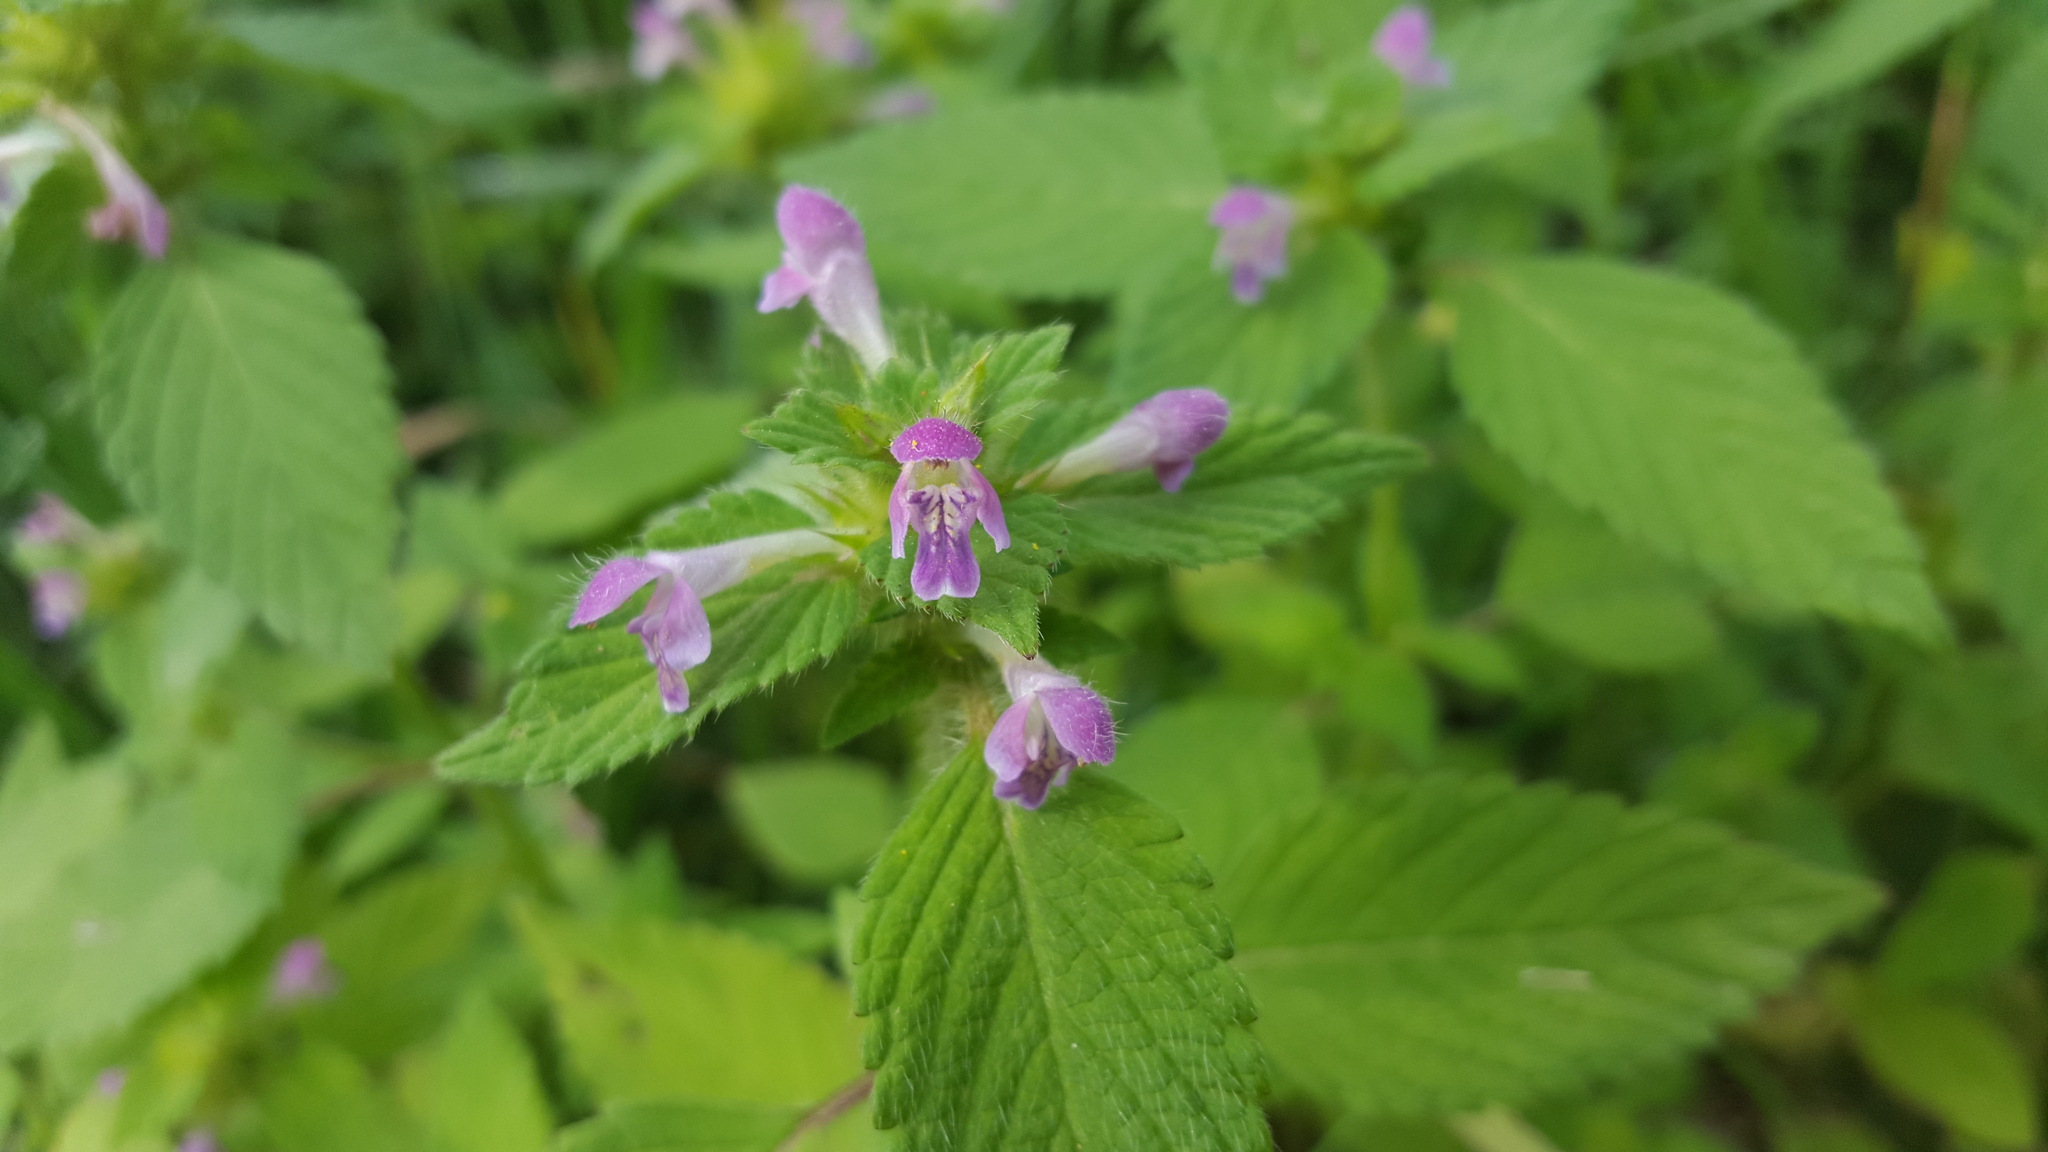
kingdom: Plantae
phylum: Tracheophyta
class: Magnoliopsida
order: Lamiales
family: Lamiaceae
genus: Galeopsis
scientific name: Galeopsis bifida
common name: Bifid hemp-nettle
